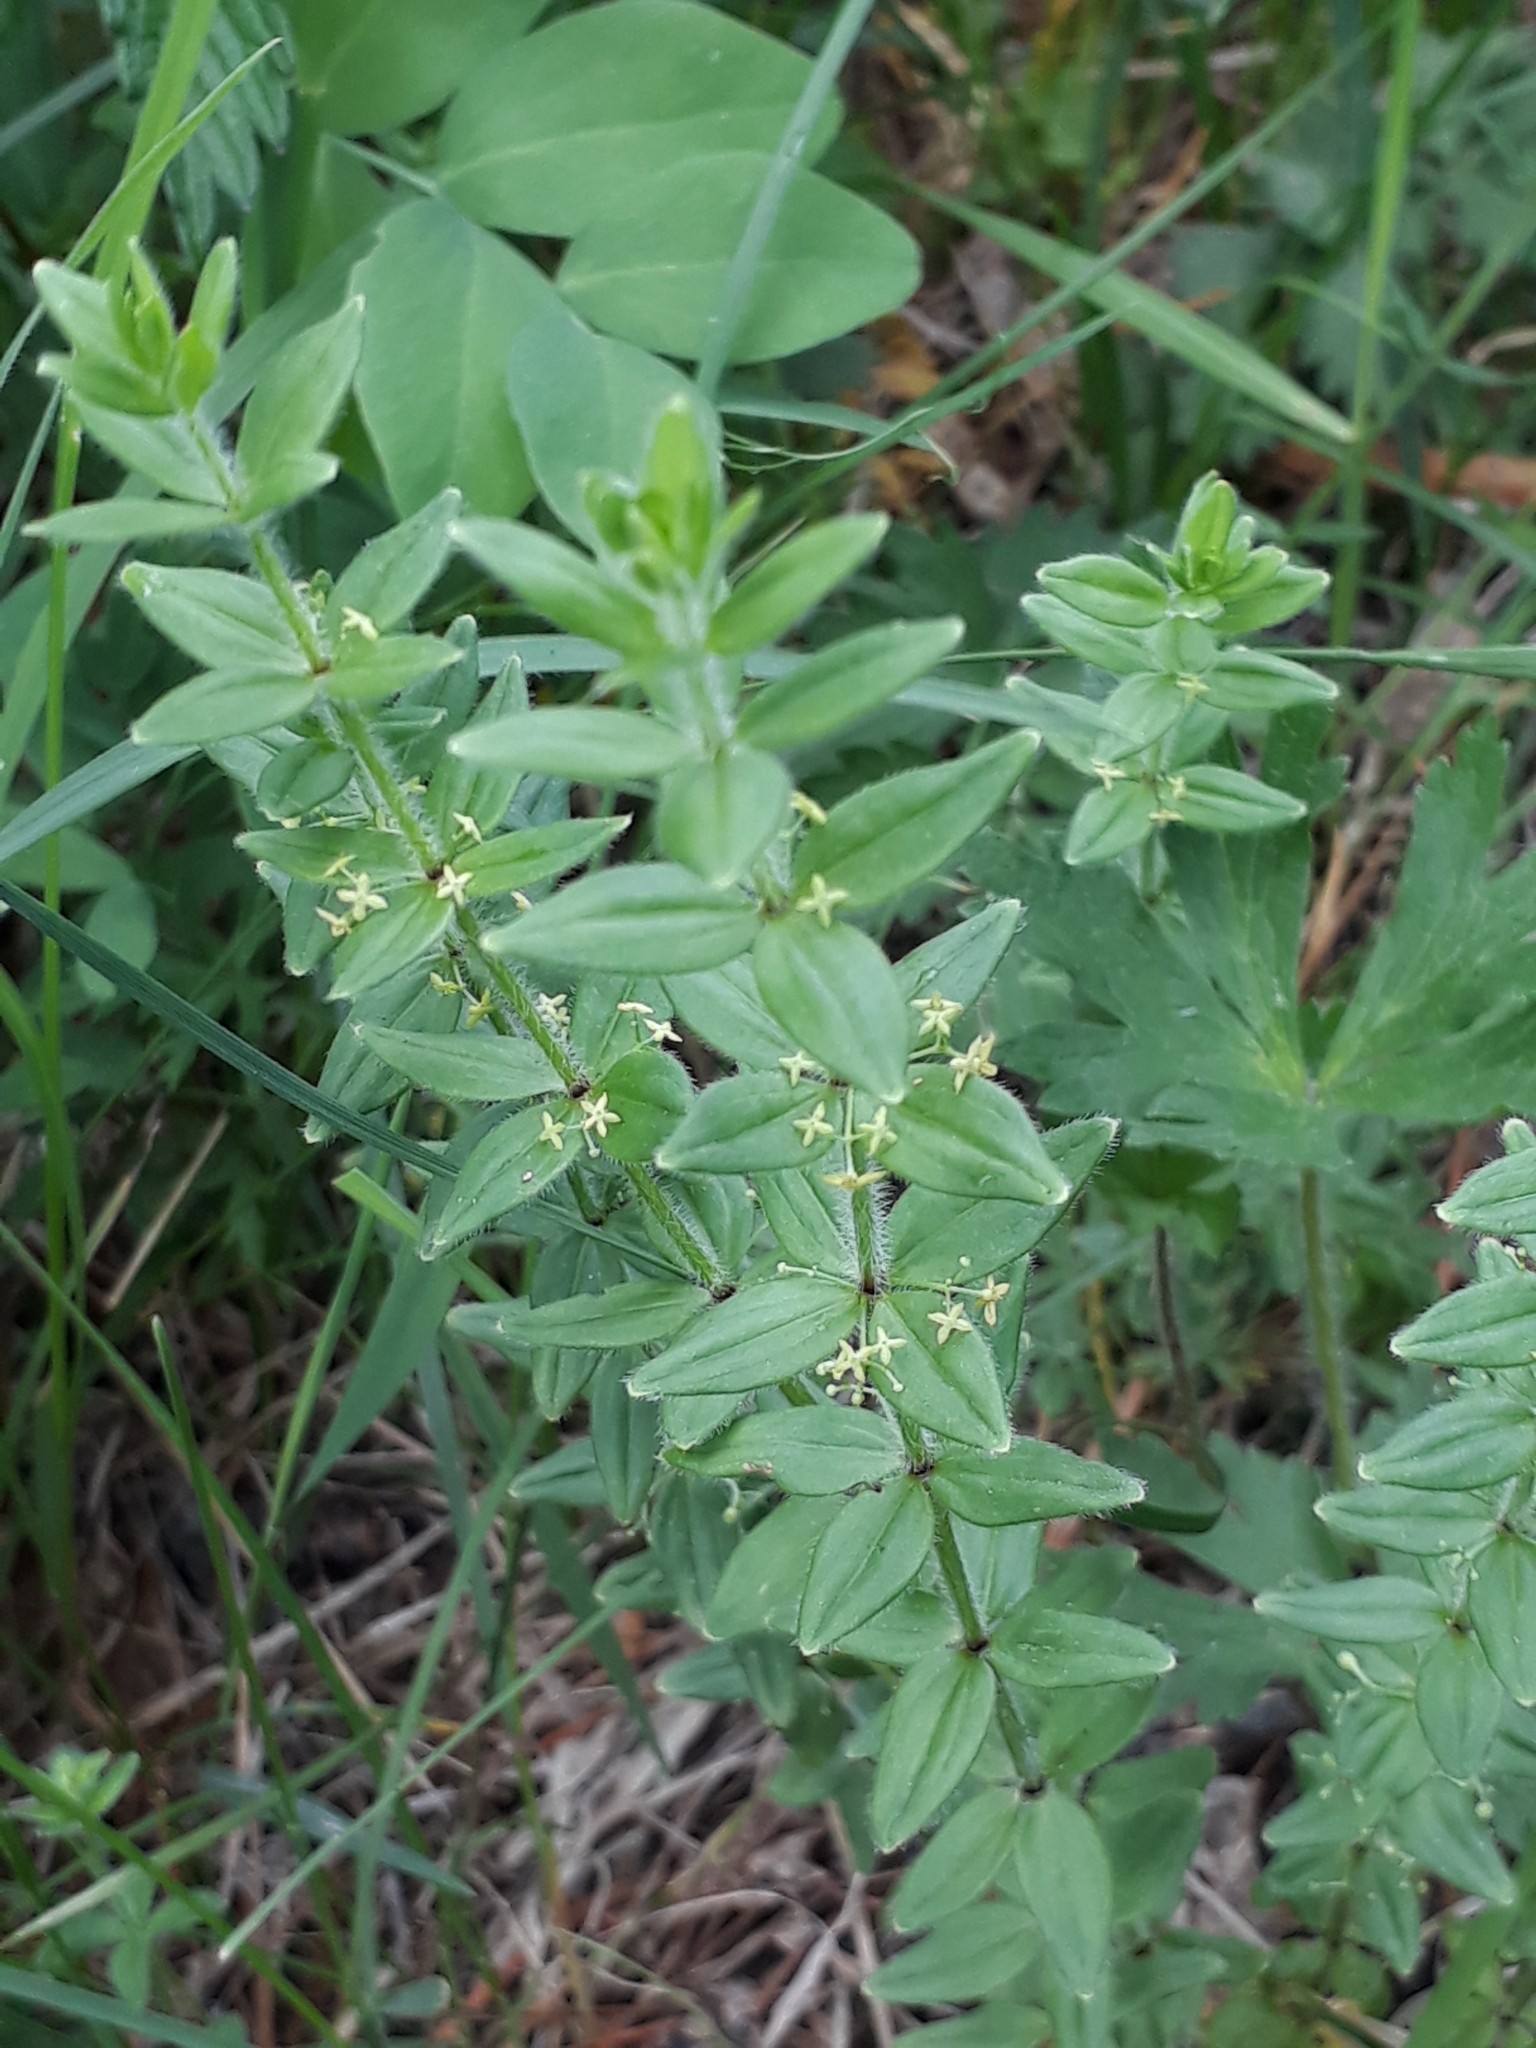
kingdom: Plantae
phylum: Tracheophyta
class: Magnoliopsida
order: Gentianales
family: Rubiaceae
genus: Cruciata
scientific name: Cruciata glabra
